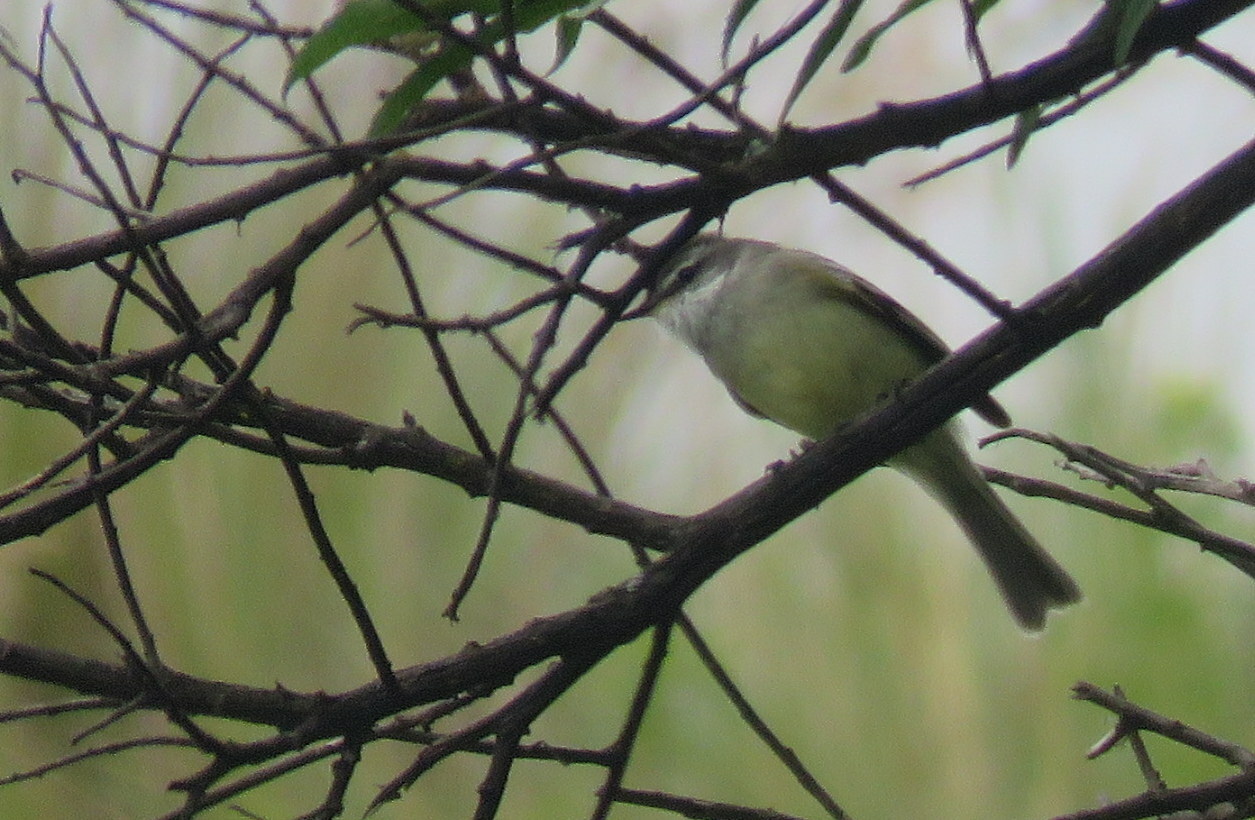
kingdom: Animalia
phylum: Chordata
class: Aves
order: Passeriformes
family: Tyrannidae
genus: Mecocerculus
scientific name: Mecocerculus leucophrys
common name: White-throated tyrannulet
